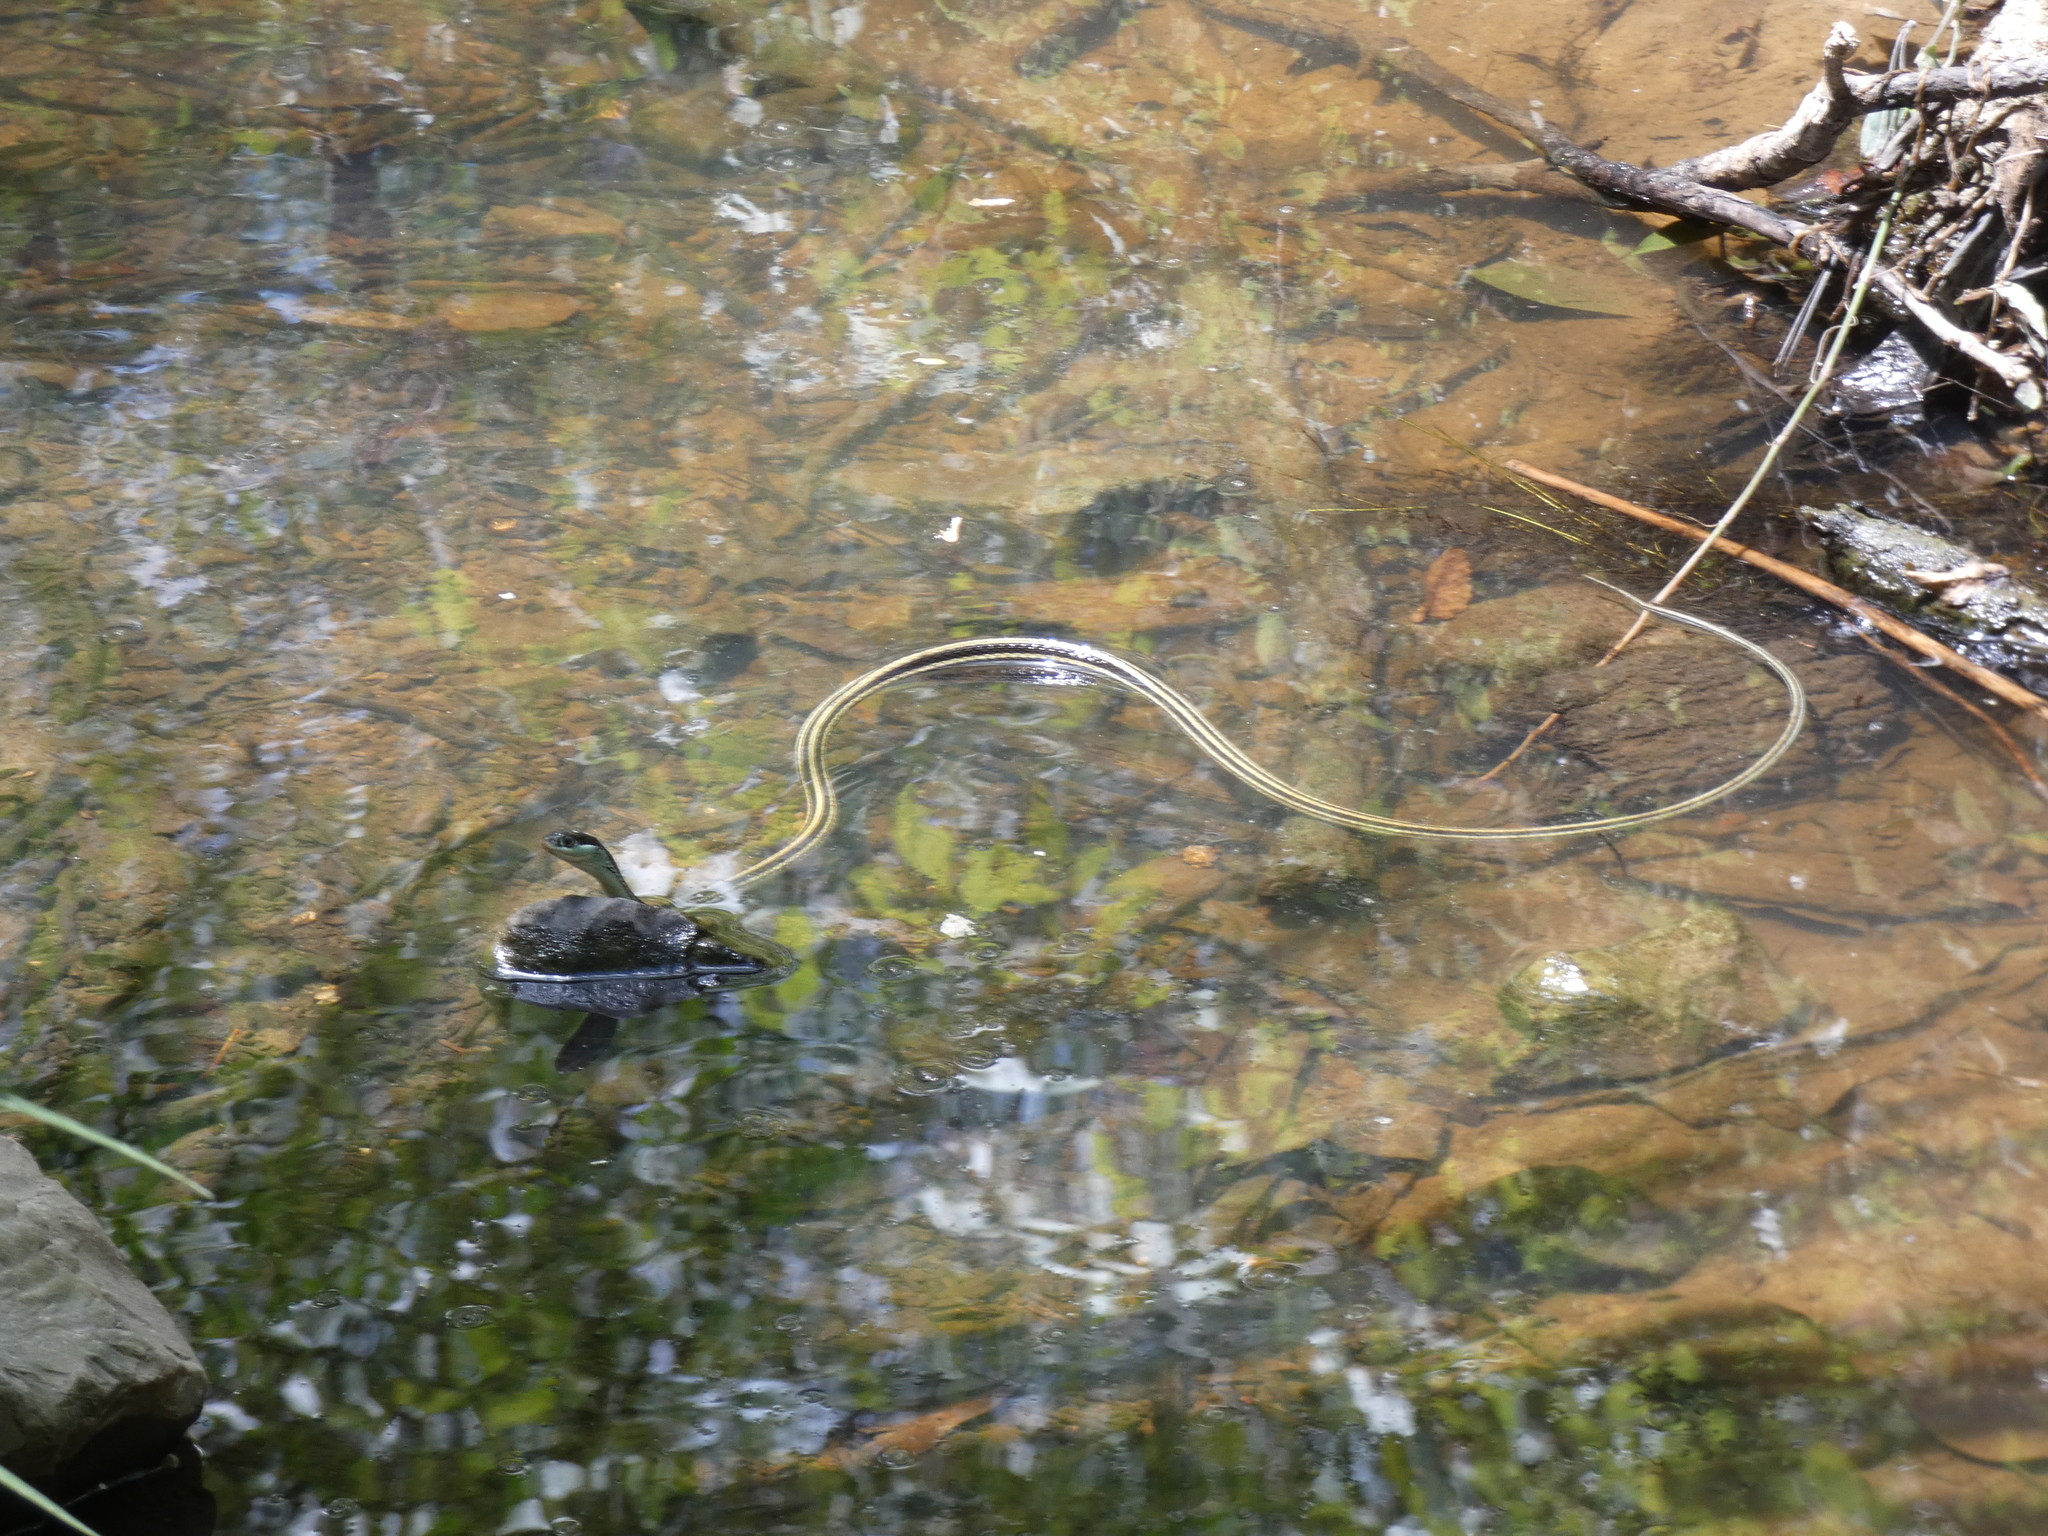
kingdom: Animalia
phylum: Chordata
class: Squamata
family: Colubridae
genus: Thamnophis
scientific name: Thamnophis proximus
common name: Western ribbon snake
